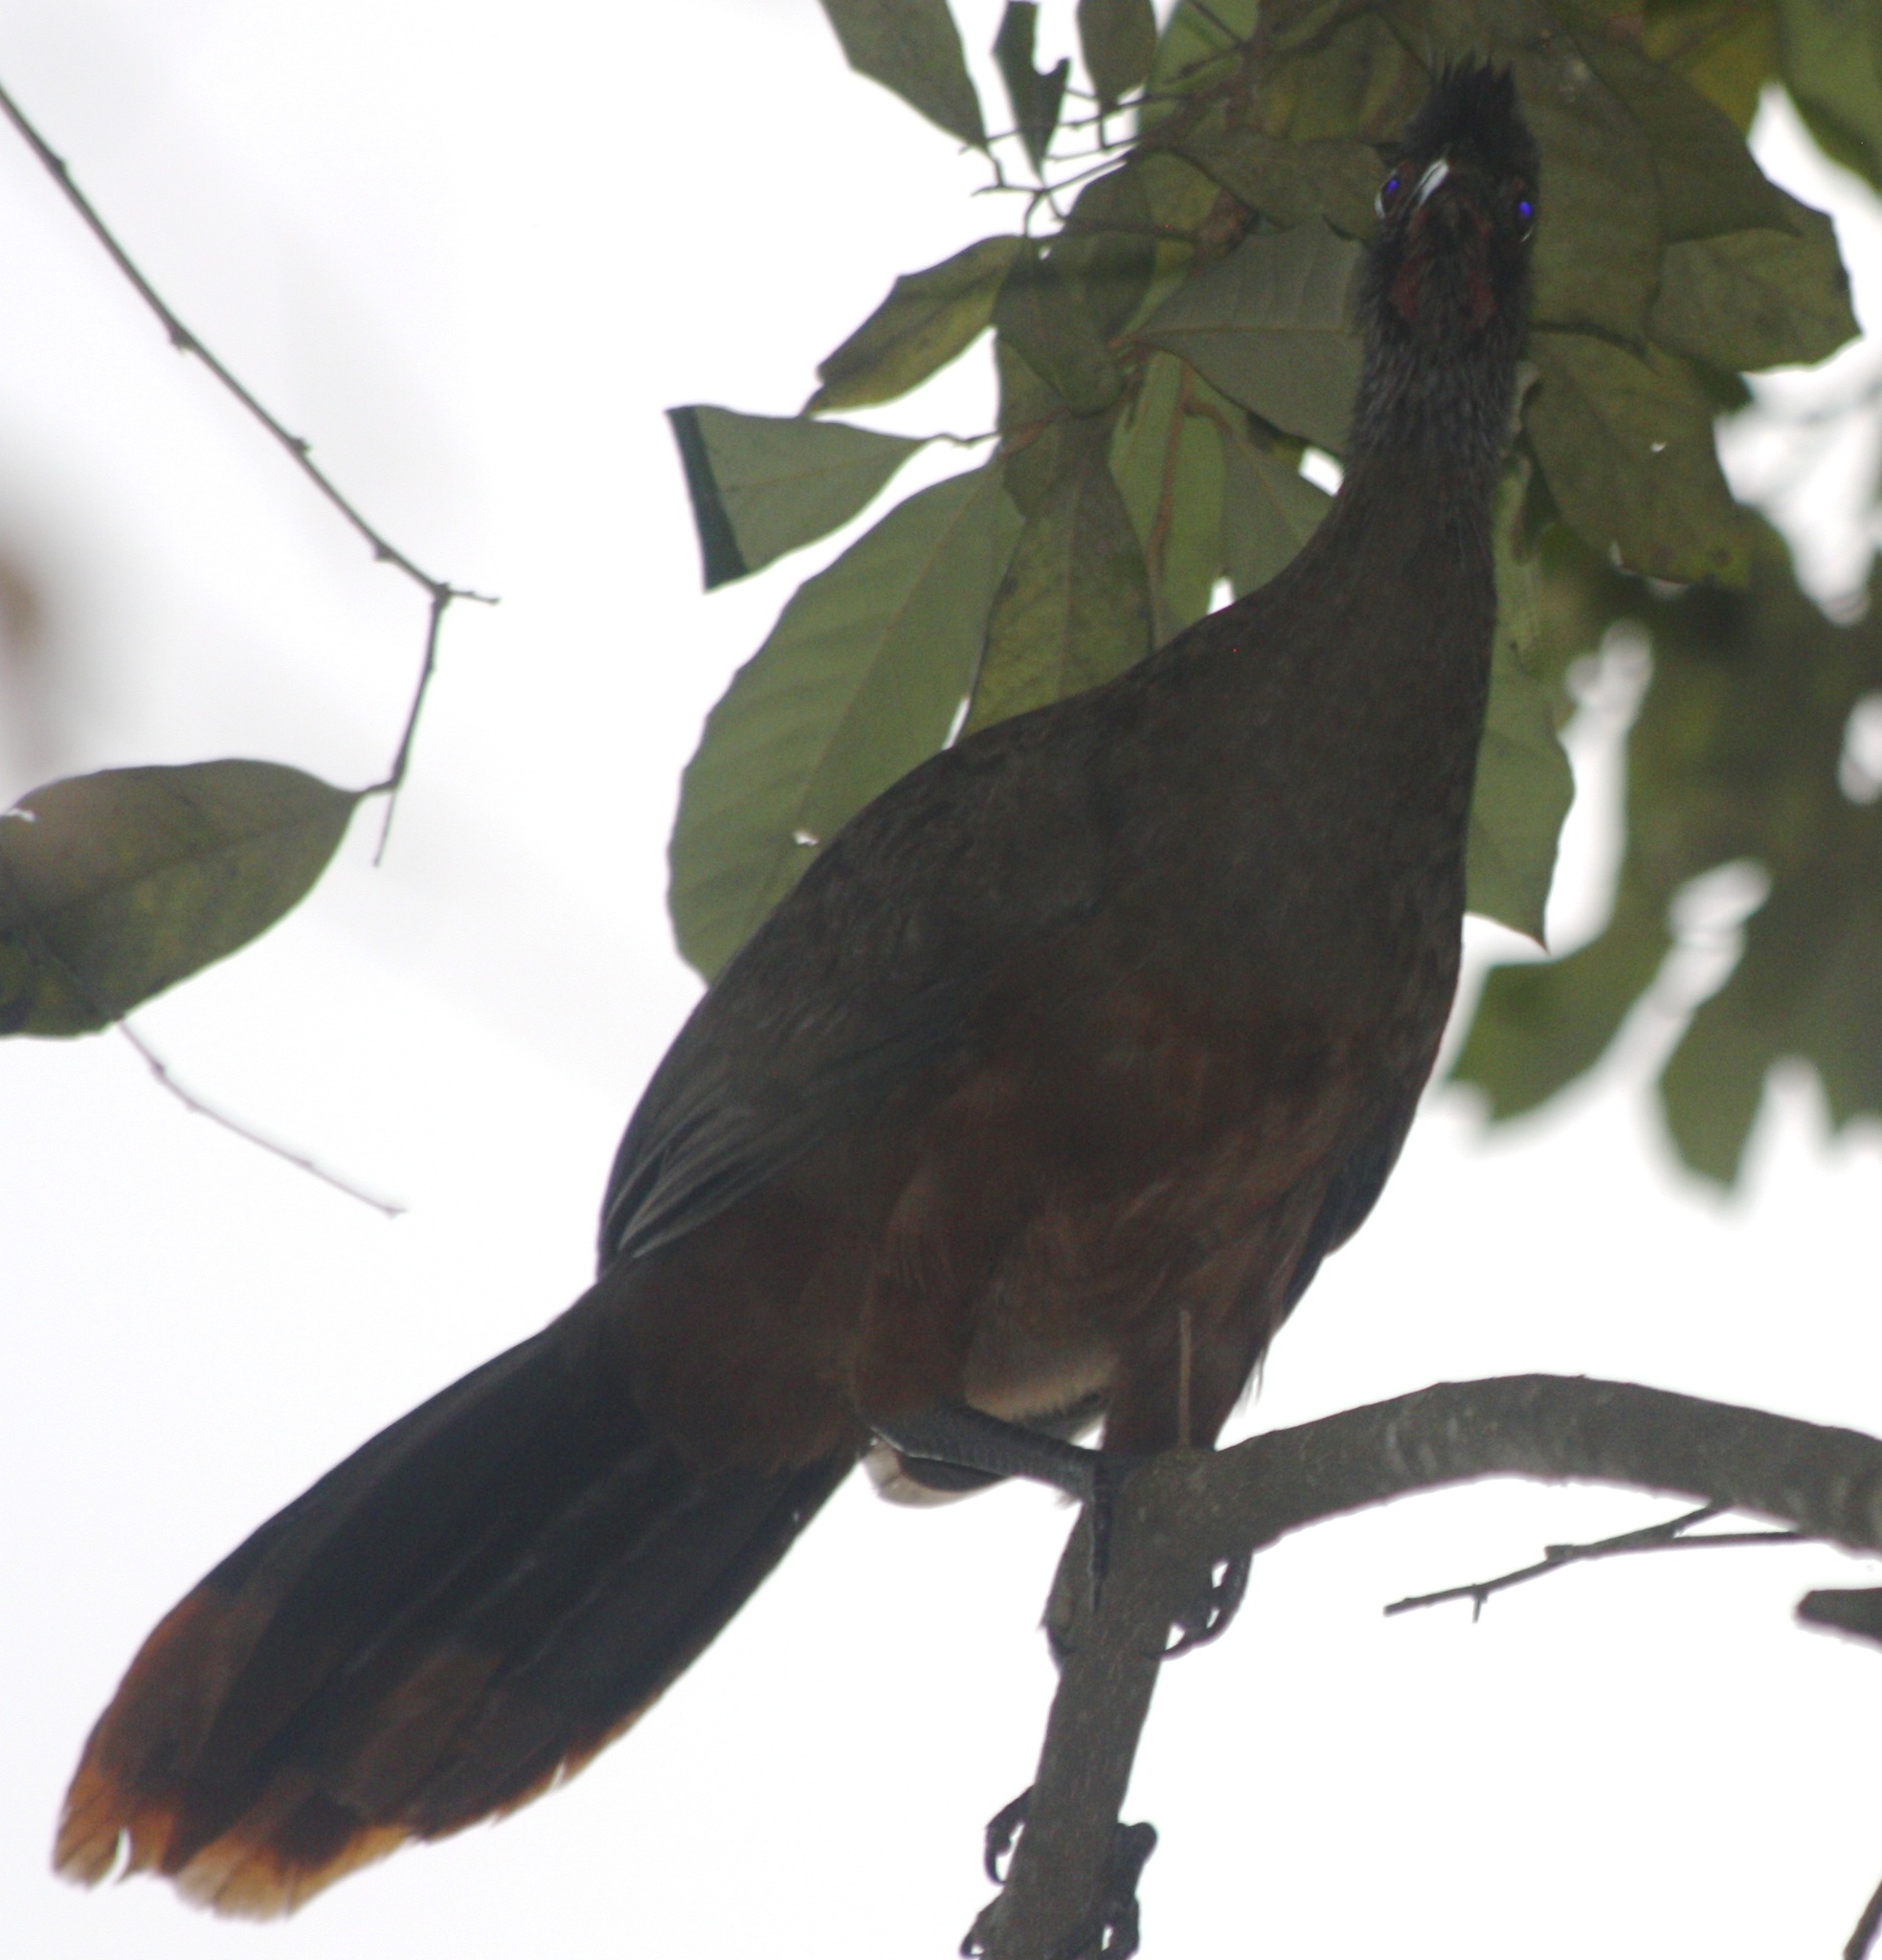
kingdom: Animalia
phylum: Chordata
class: Aves
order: Galliformes
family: Cracidae
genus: Ortalis
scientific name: Ortalis wagleri
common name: Rufous-bellied chachalaca
